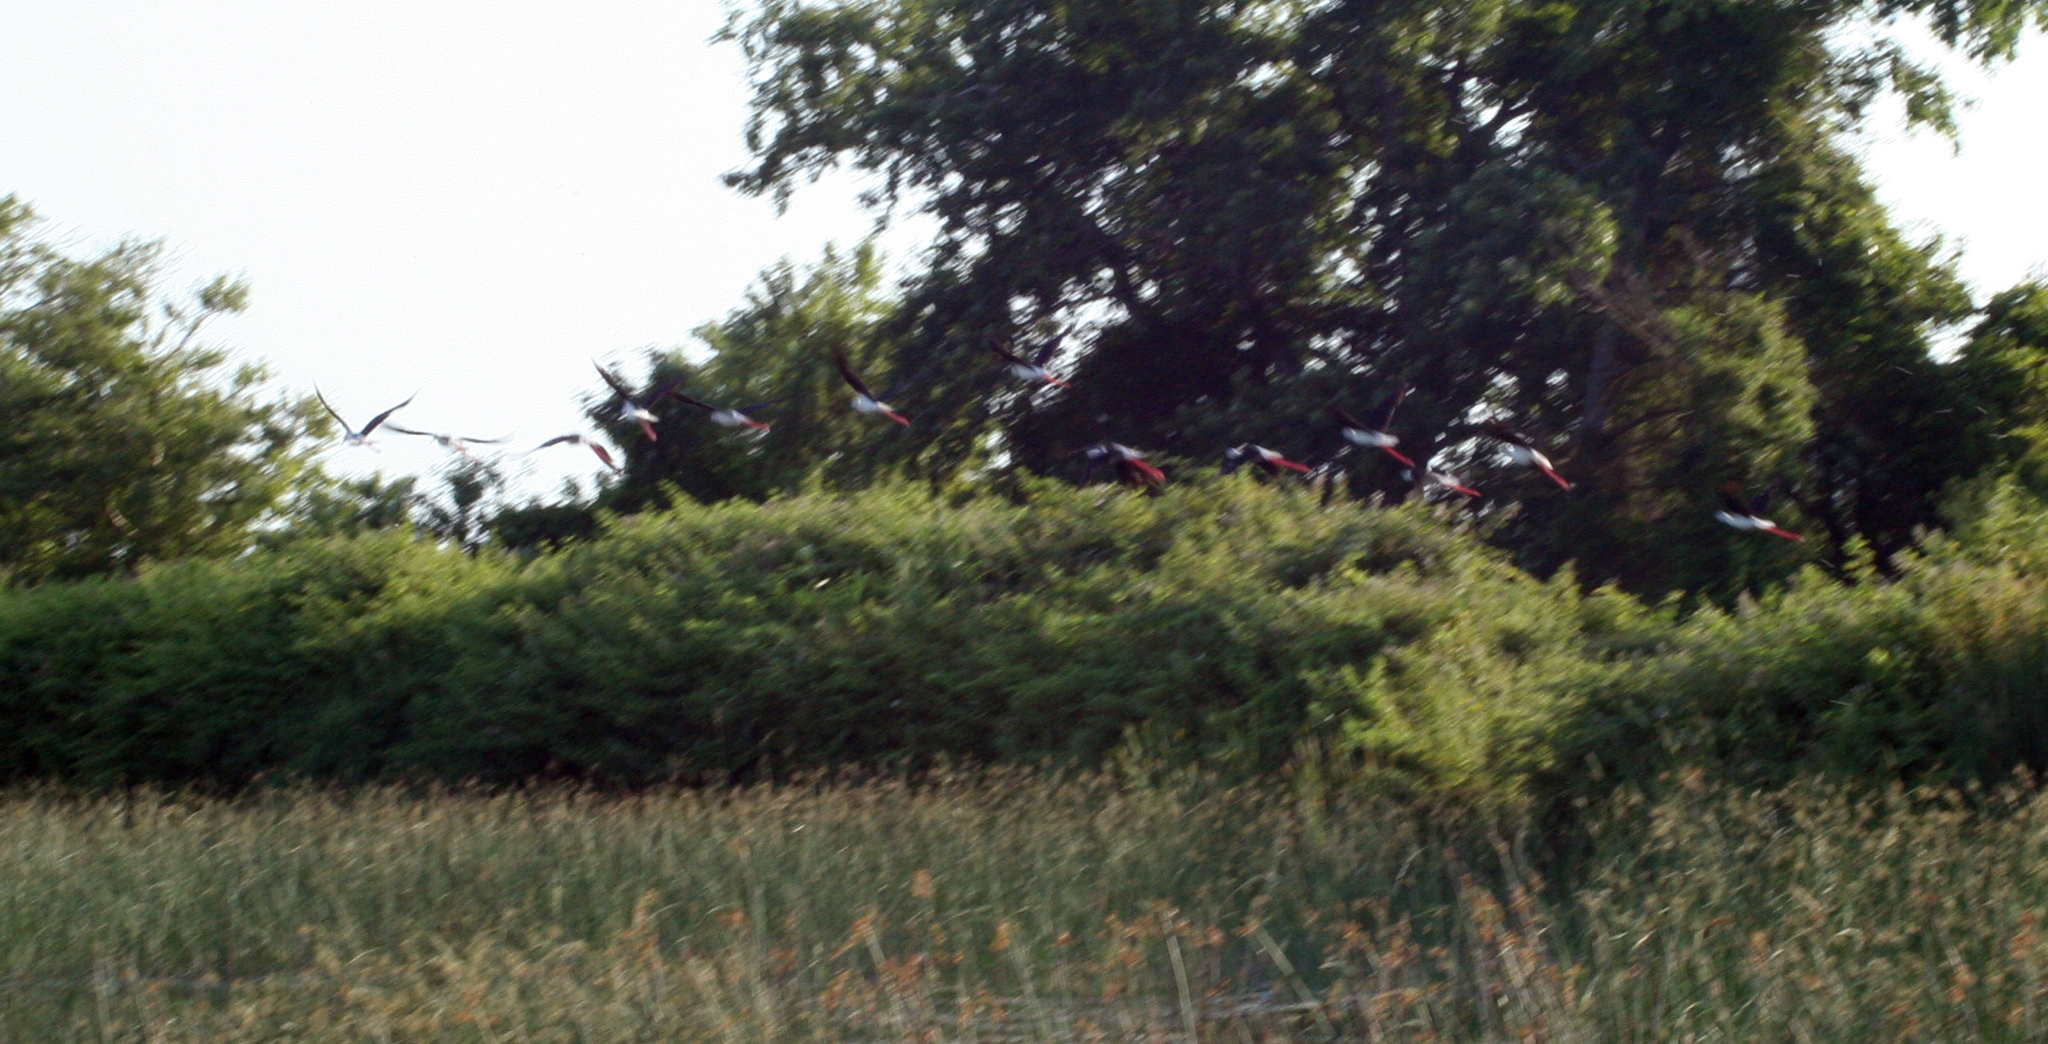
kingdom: Animalia
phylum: Chordata
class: Aves
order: Charadriiformes
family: Recurvirostridae
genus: Himantopus
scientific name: Himantopus himantopus
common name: Black-winged stilt
